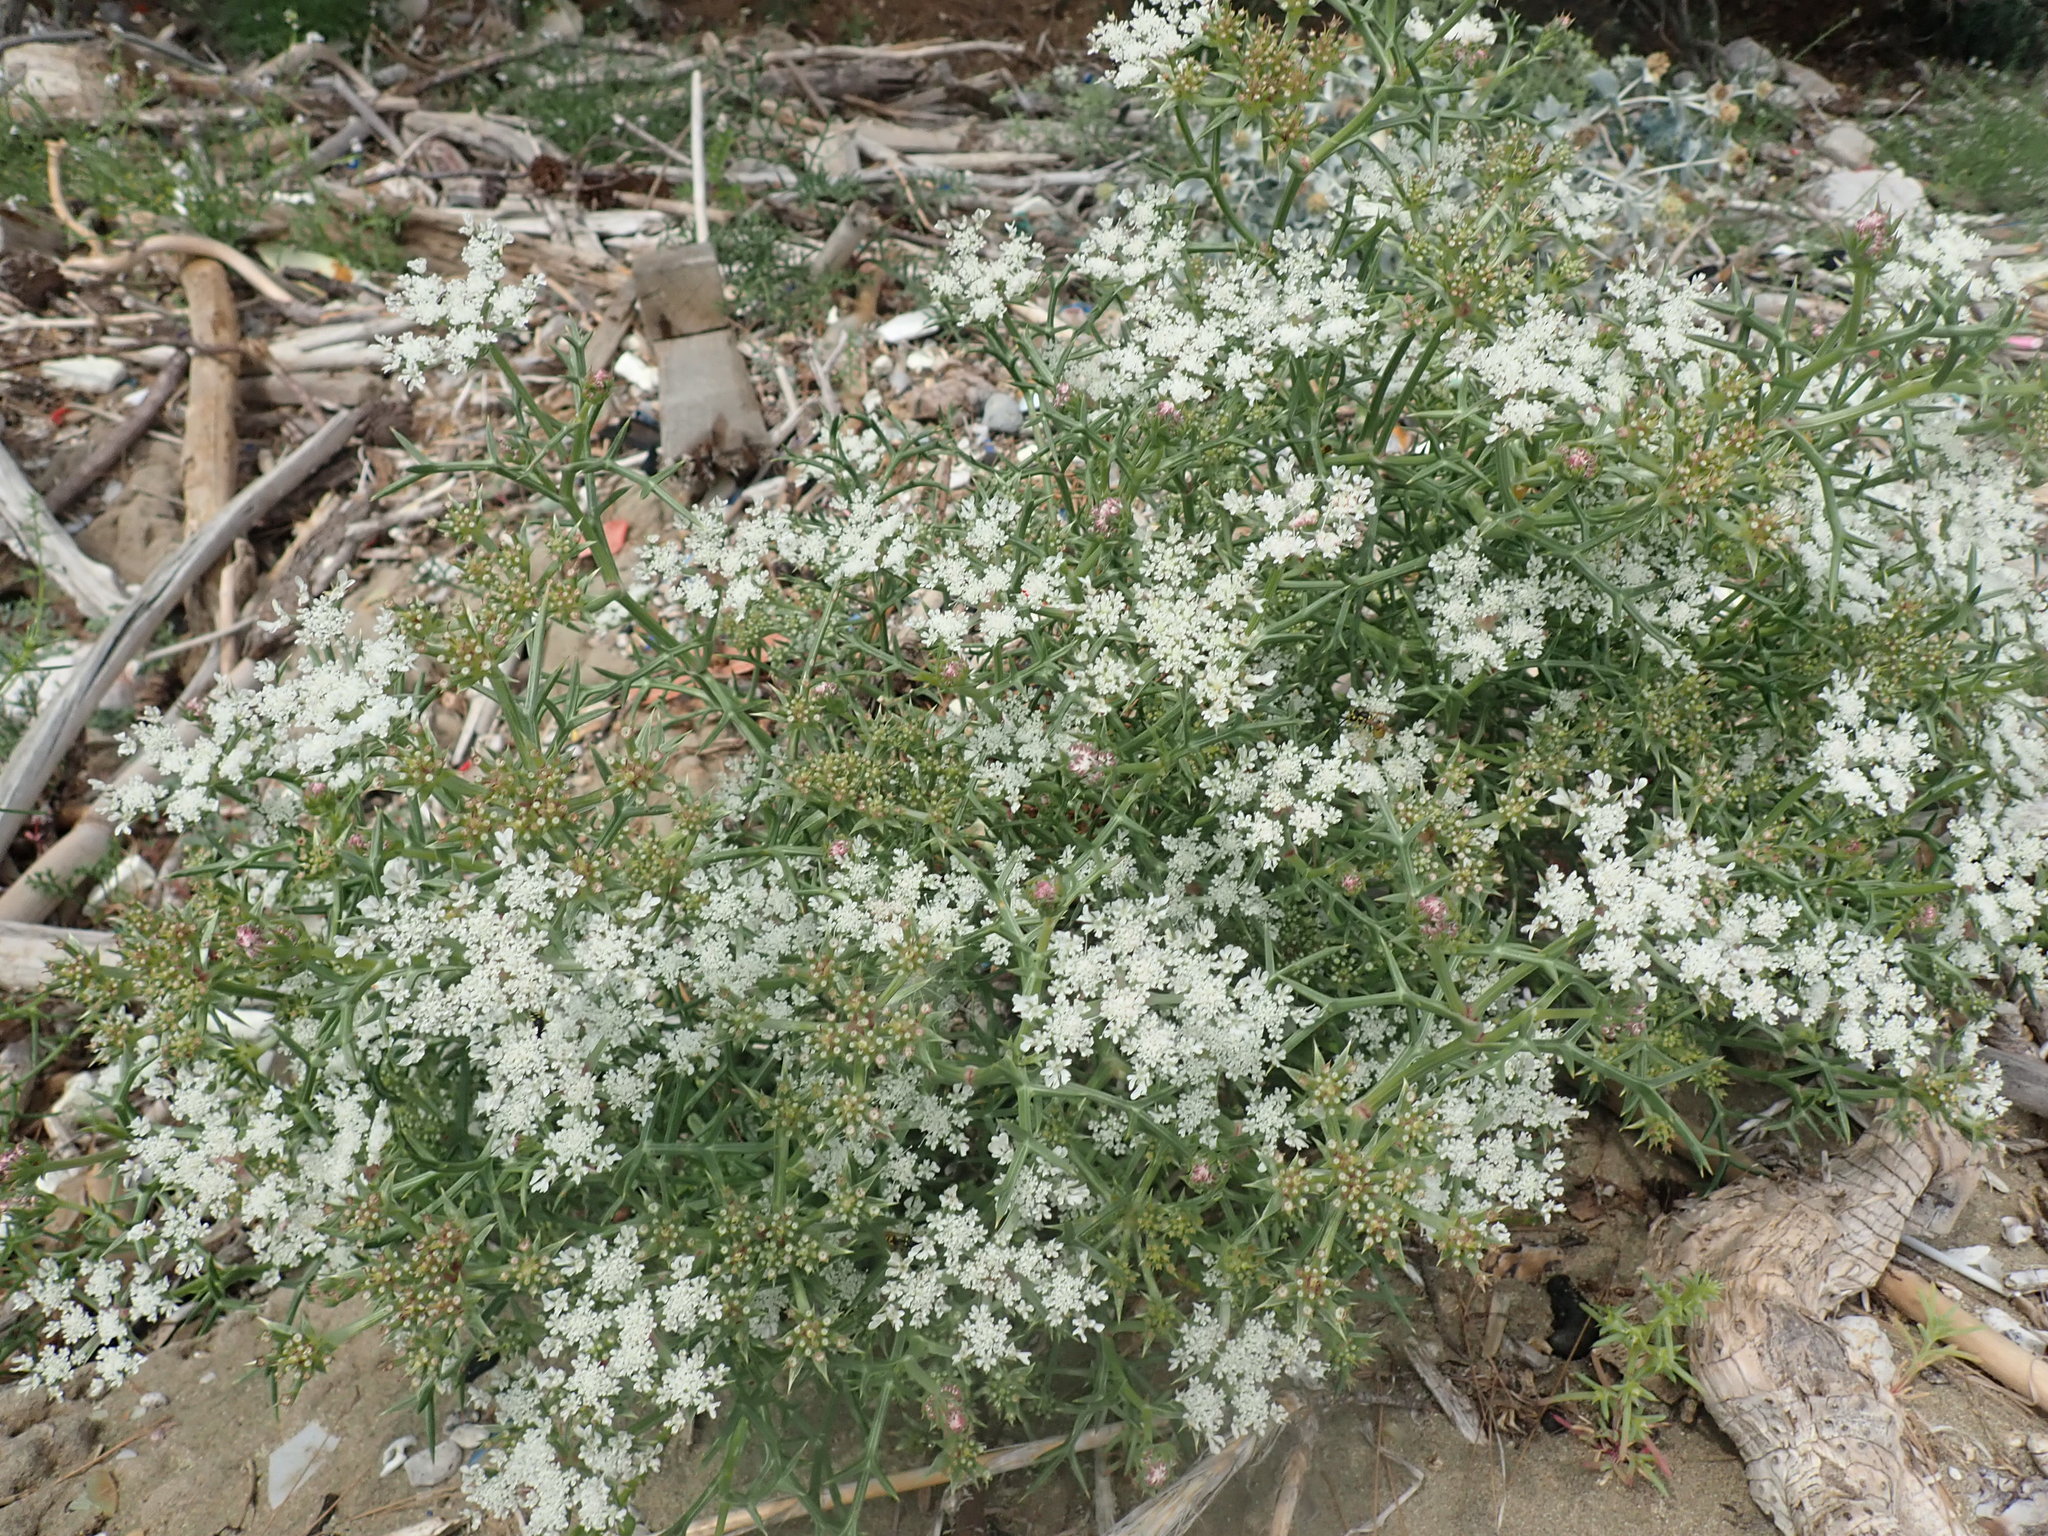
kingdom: Plantae
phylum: Tracheophyta
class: Magnoliopsida
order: Apiales
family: Apiaceae
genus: Echinophora
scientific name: Echinophora spinosa
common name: Prickly samphire
